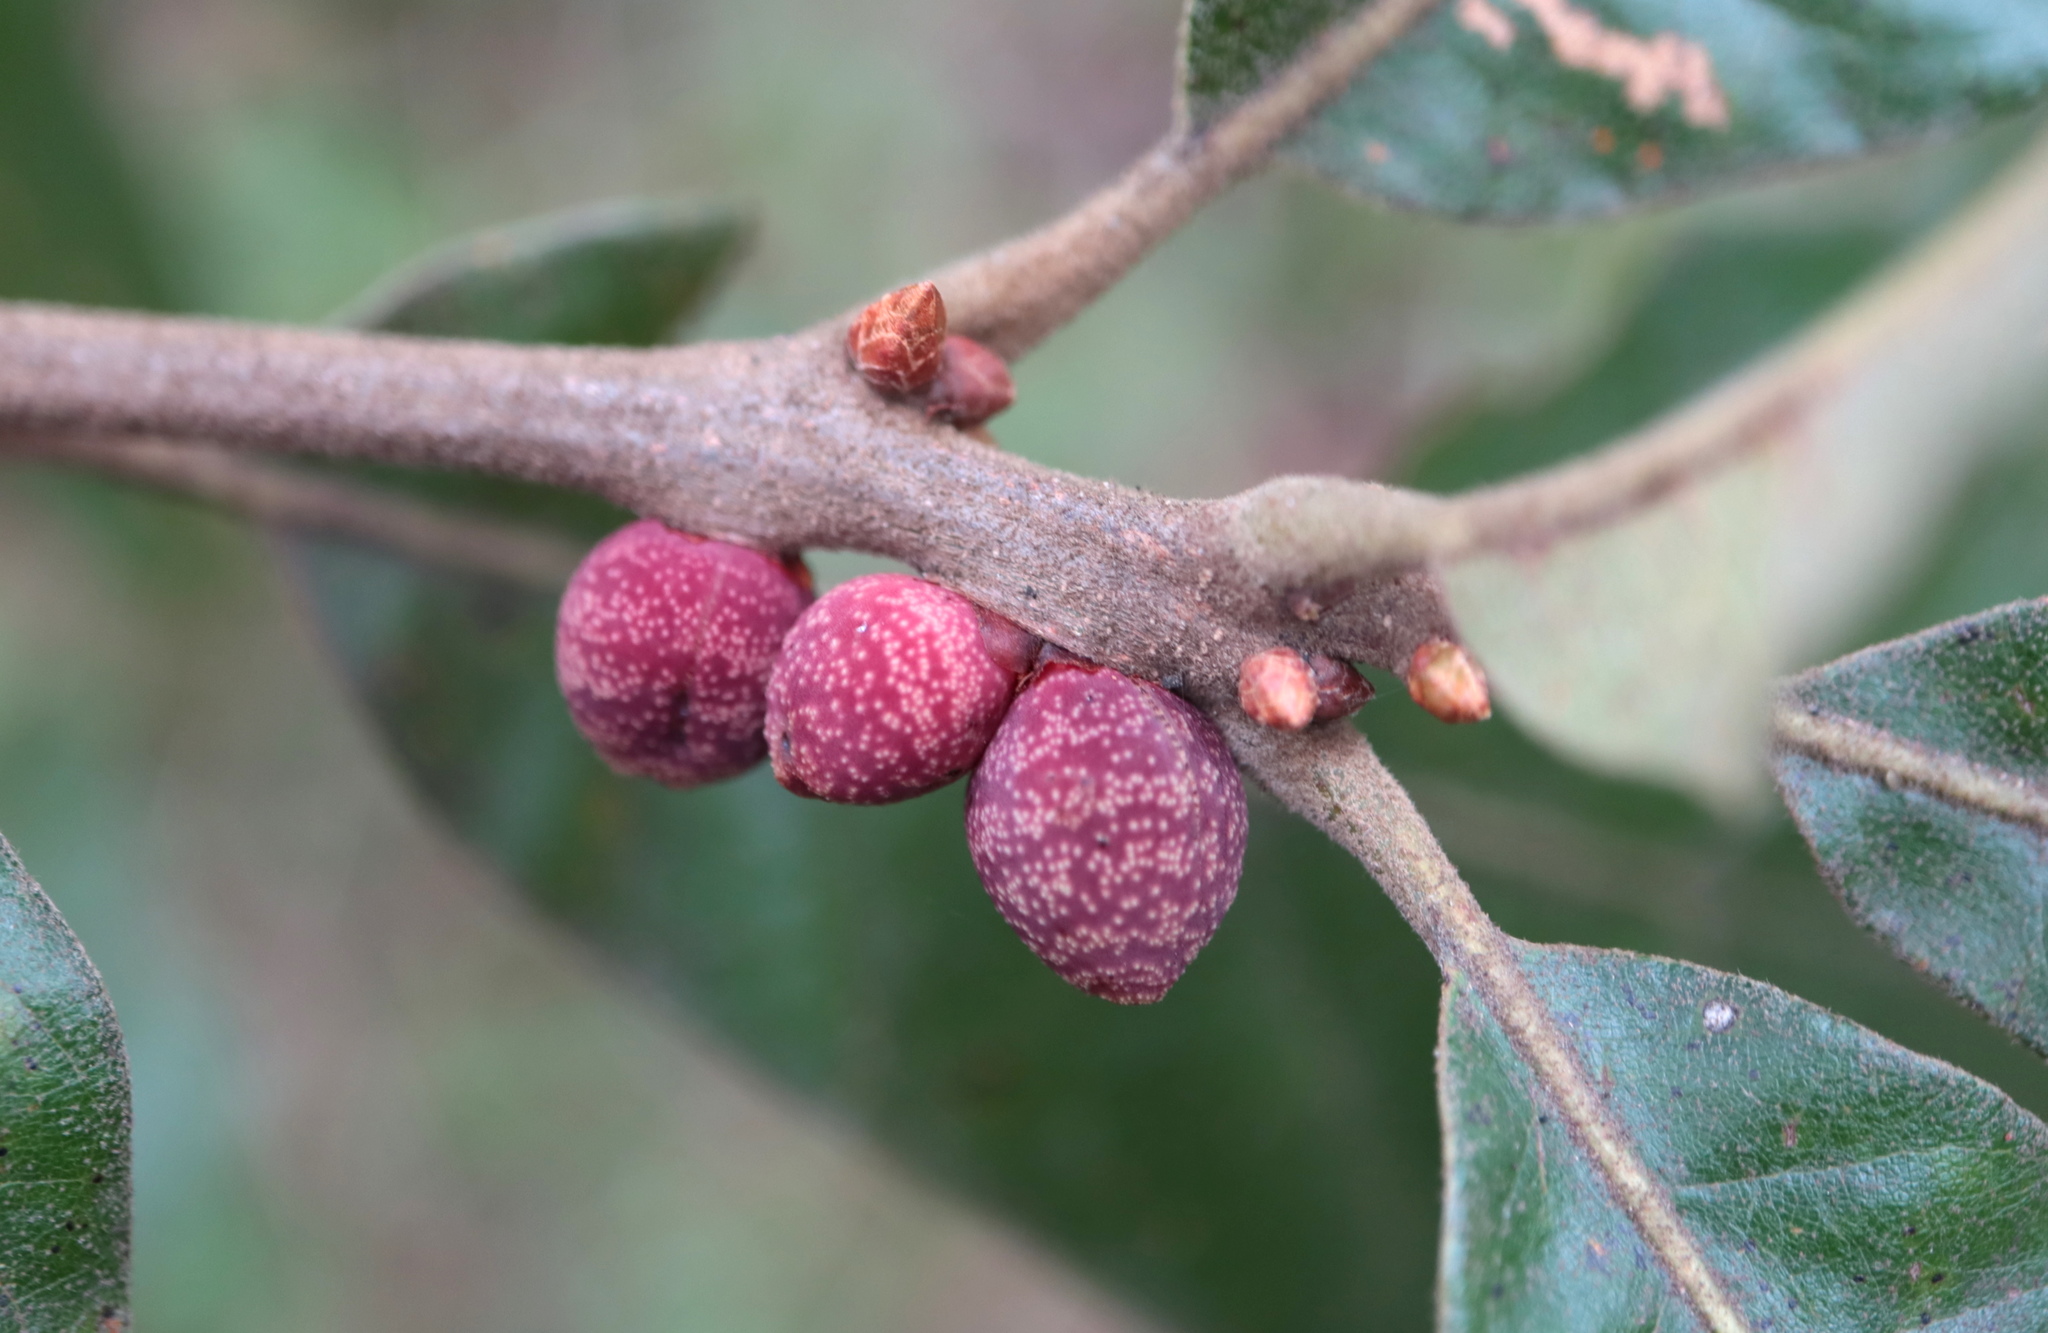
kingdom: Animalia
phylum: Arthropoda
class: Insecta
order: Hymenoptera
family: Cynipidae
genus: Kokkocynips
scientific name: Kokkocynips imbricariae
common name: Banded bullet gall wasp
